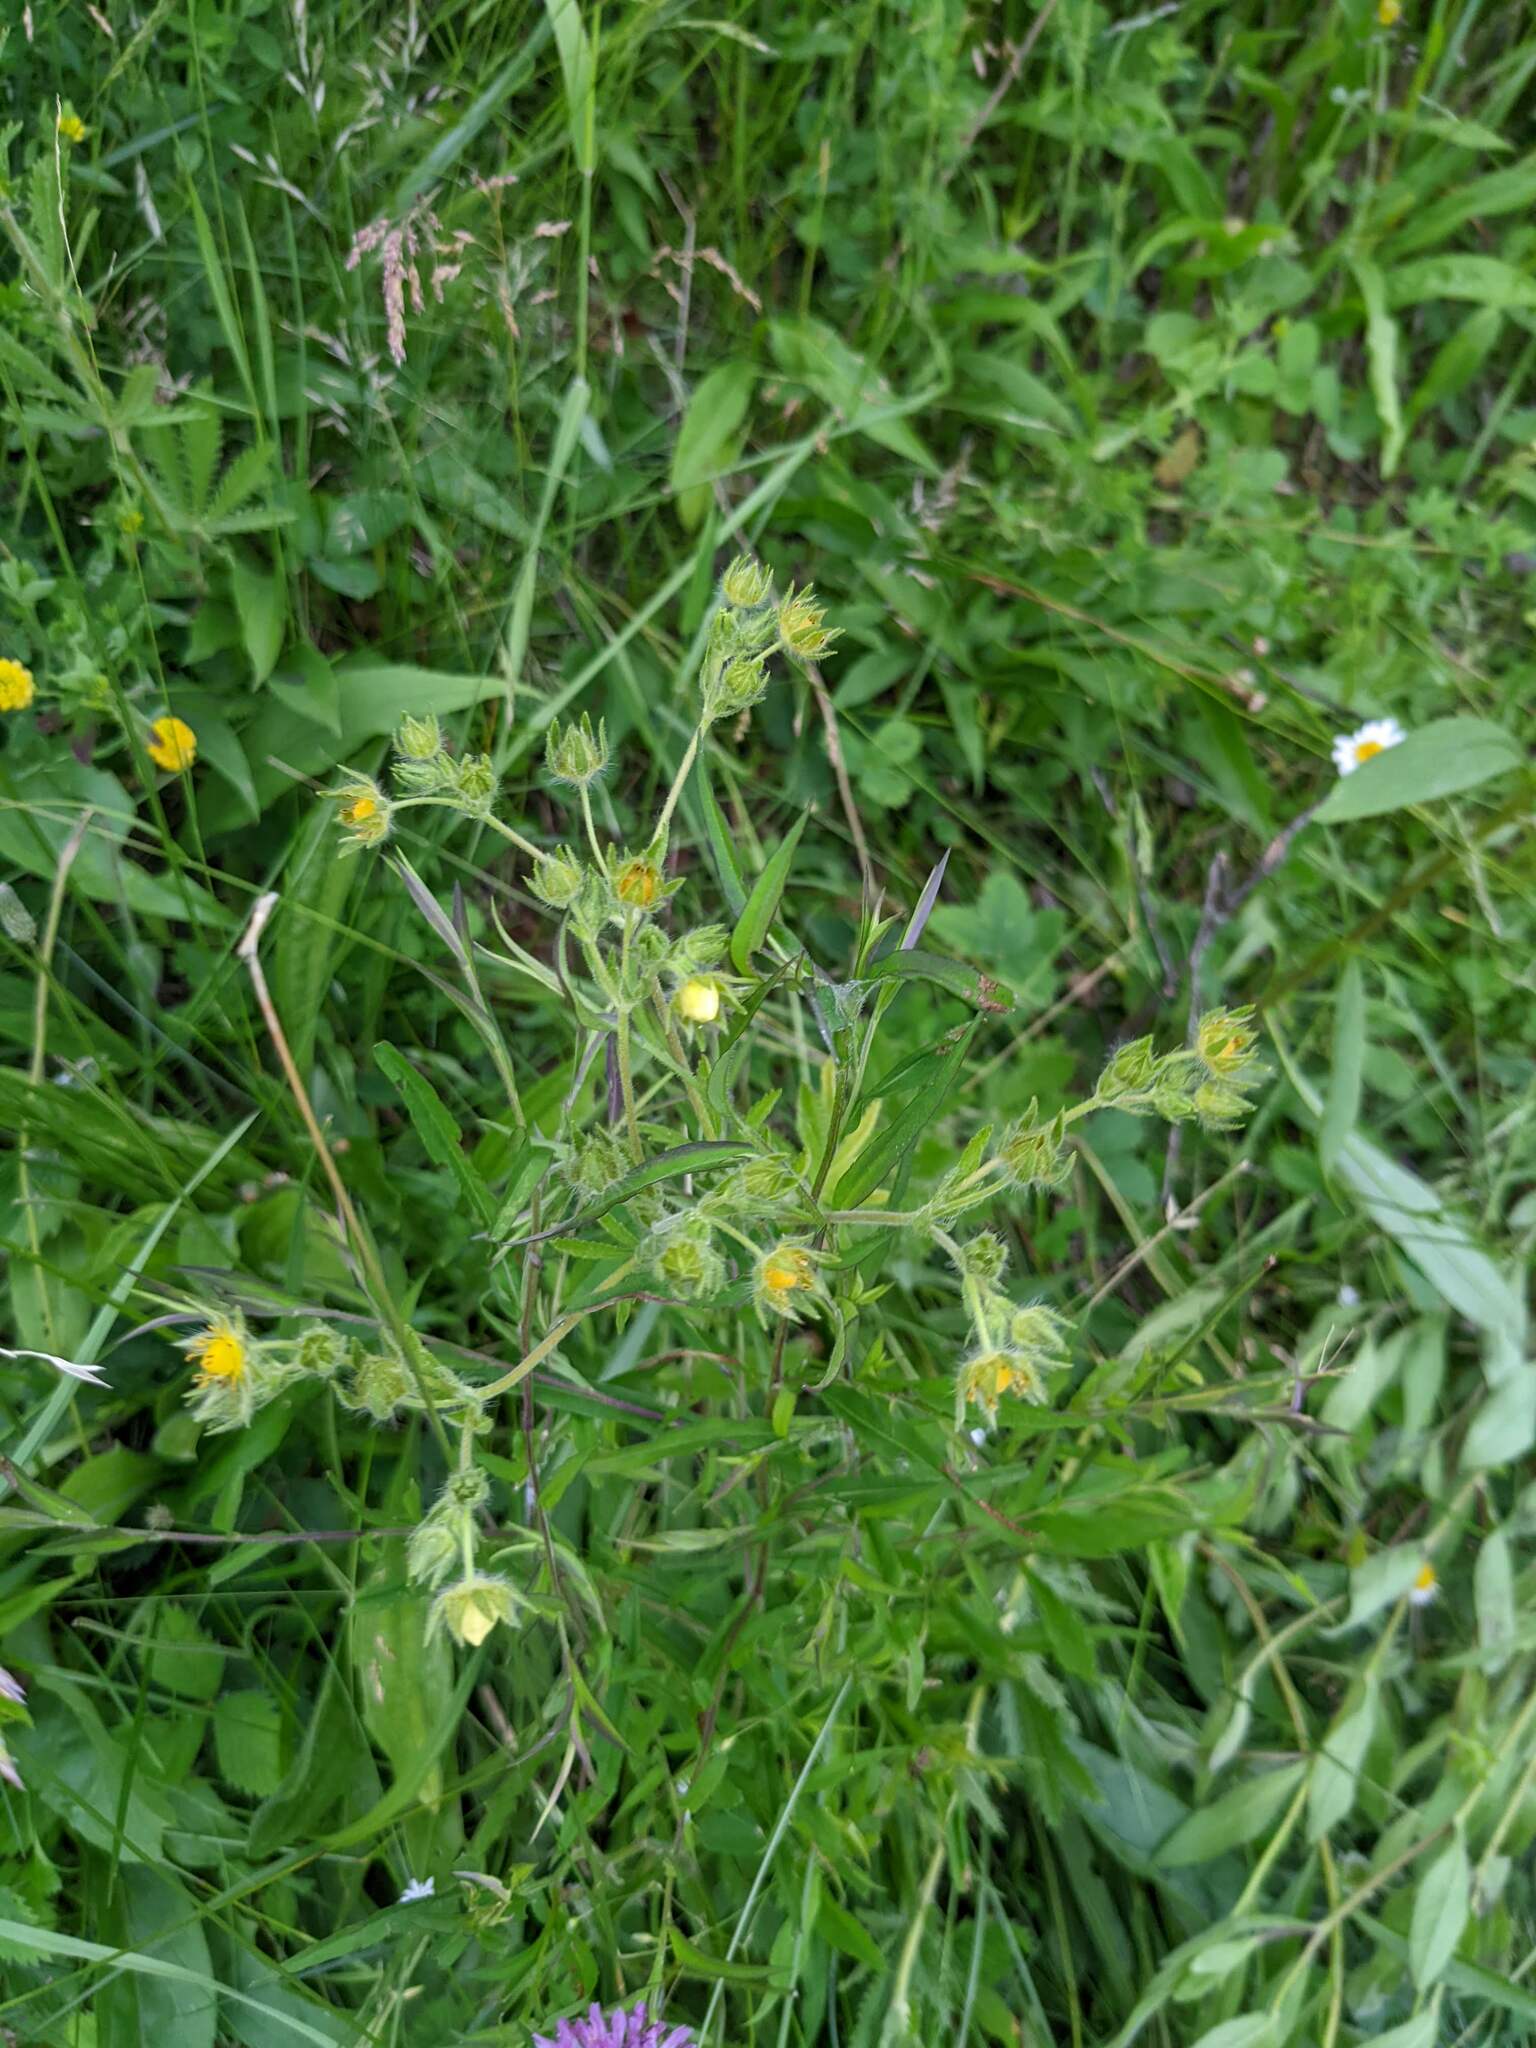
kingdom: Plantae
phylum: Tracheophyta
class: Magnoliopsida
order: Rosales
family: Rosaceae
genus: Potentilla
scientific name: Potentilla recta
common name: Sulphur cinquefoil
